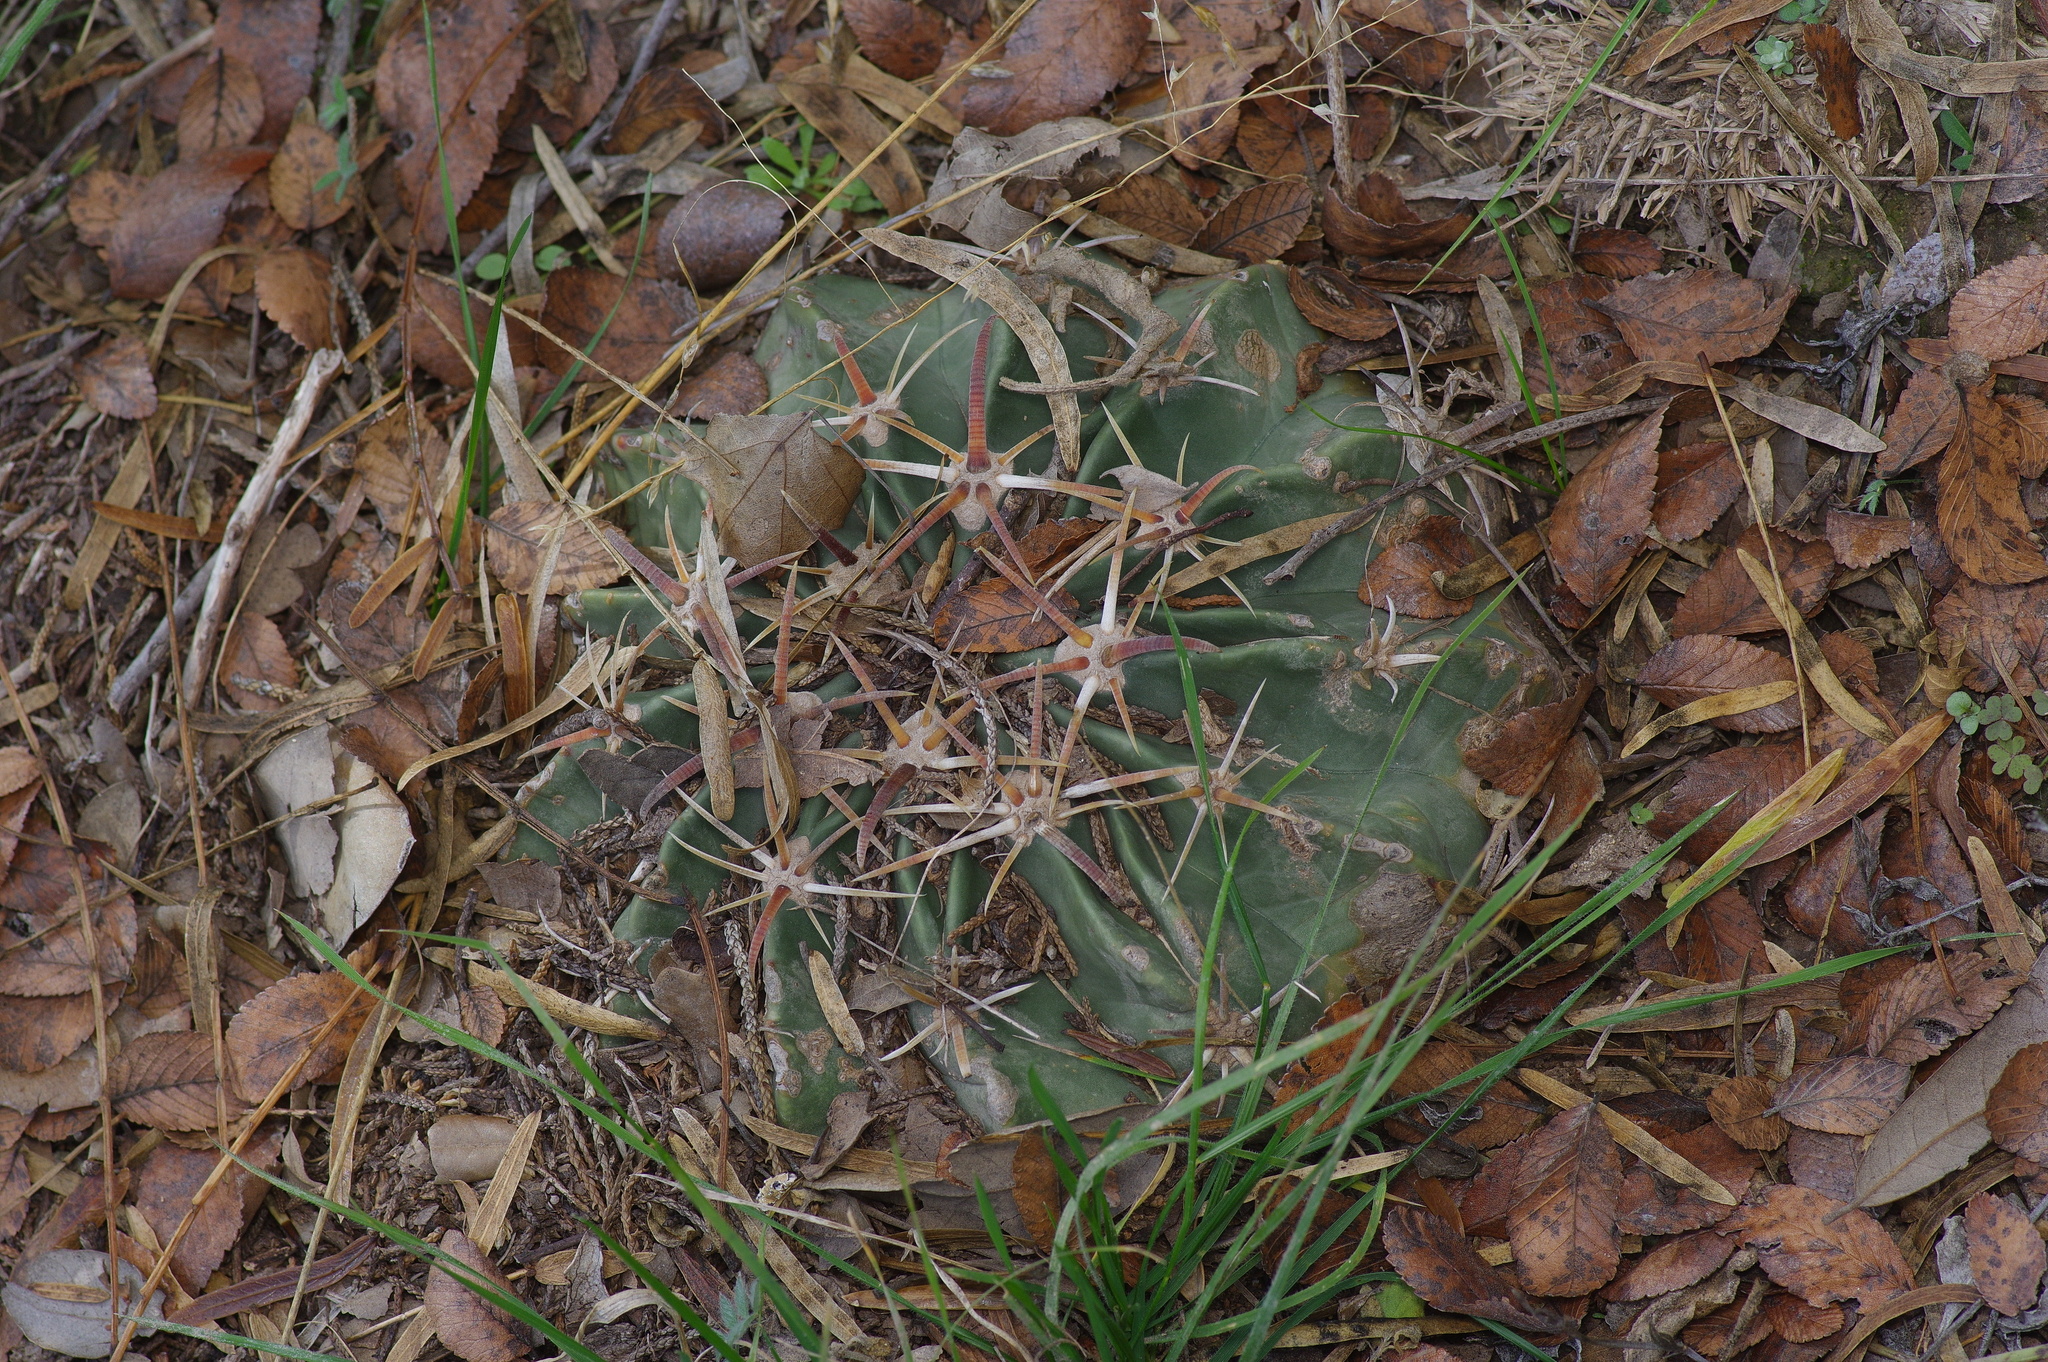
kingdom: Plantae
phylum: Tracheophyta
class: Magnoliopsida
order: Caryophyllales
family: Cactaceae
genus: Echinocactus
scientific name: Echinocactus texensis
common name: Devil's pincushion
